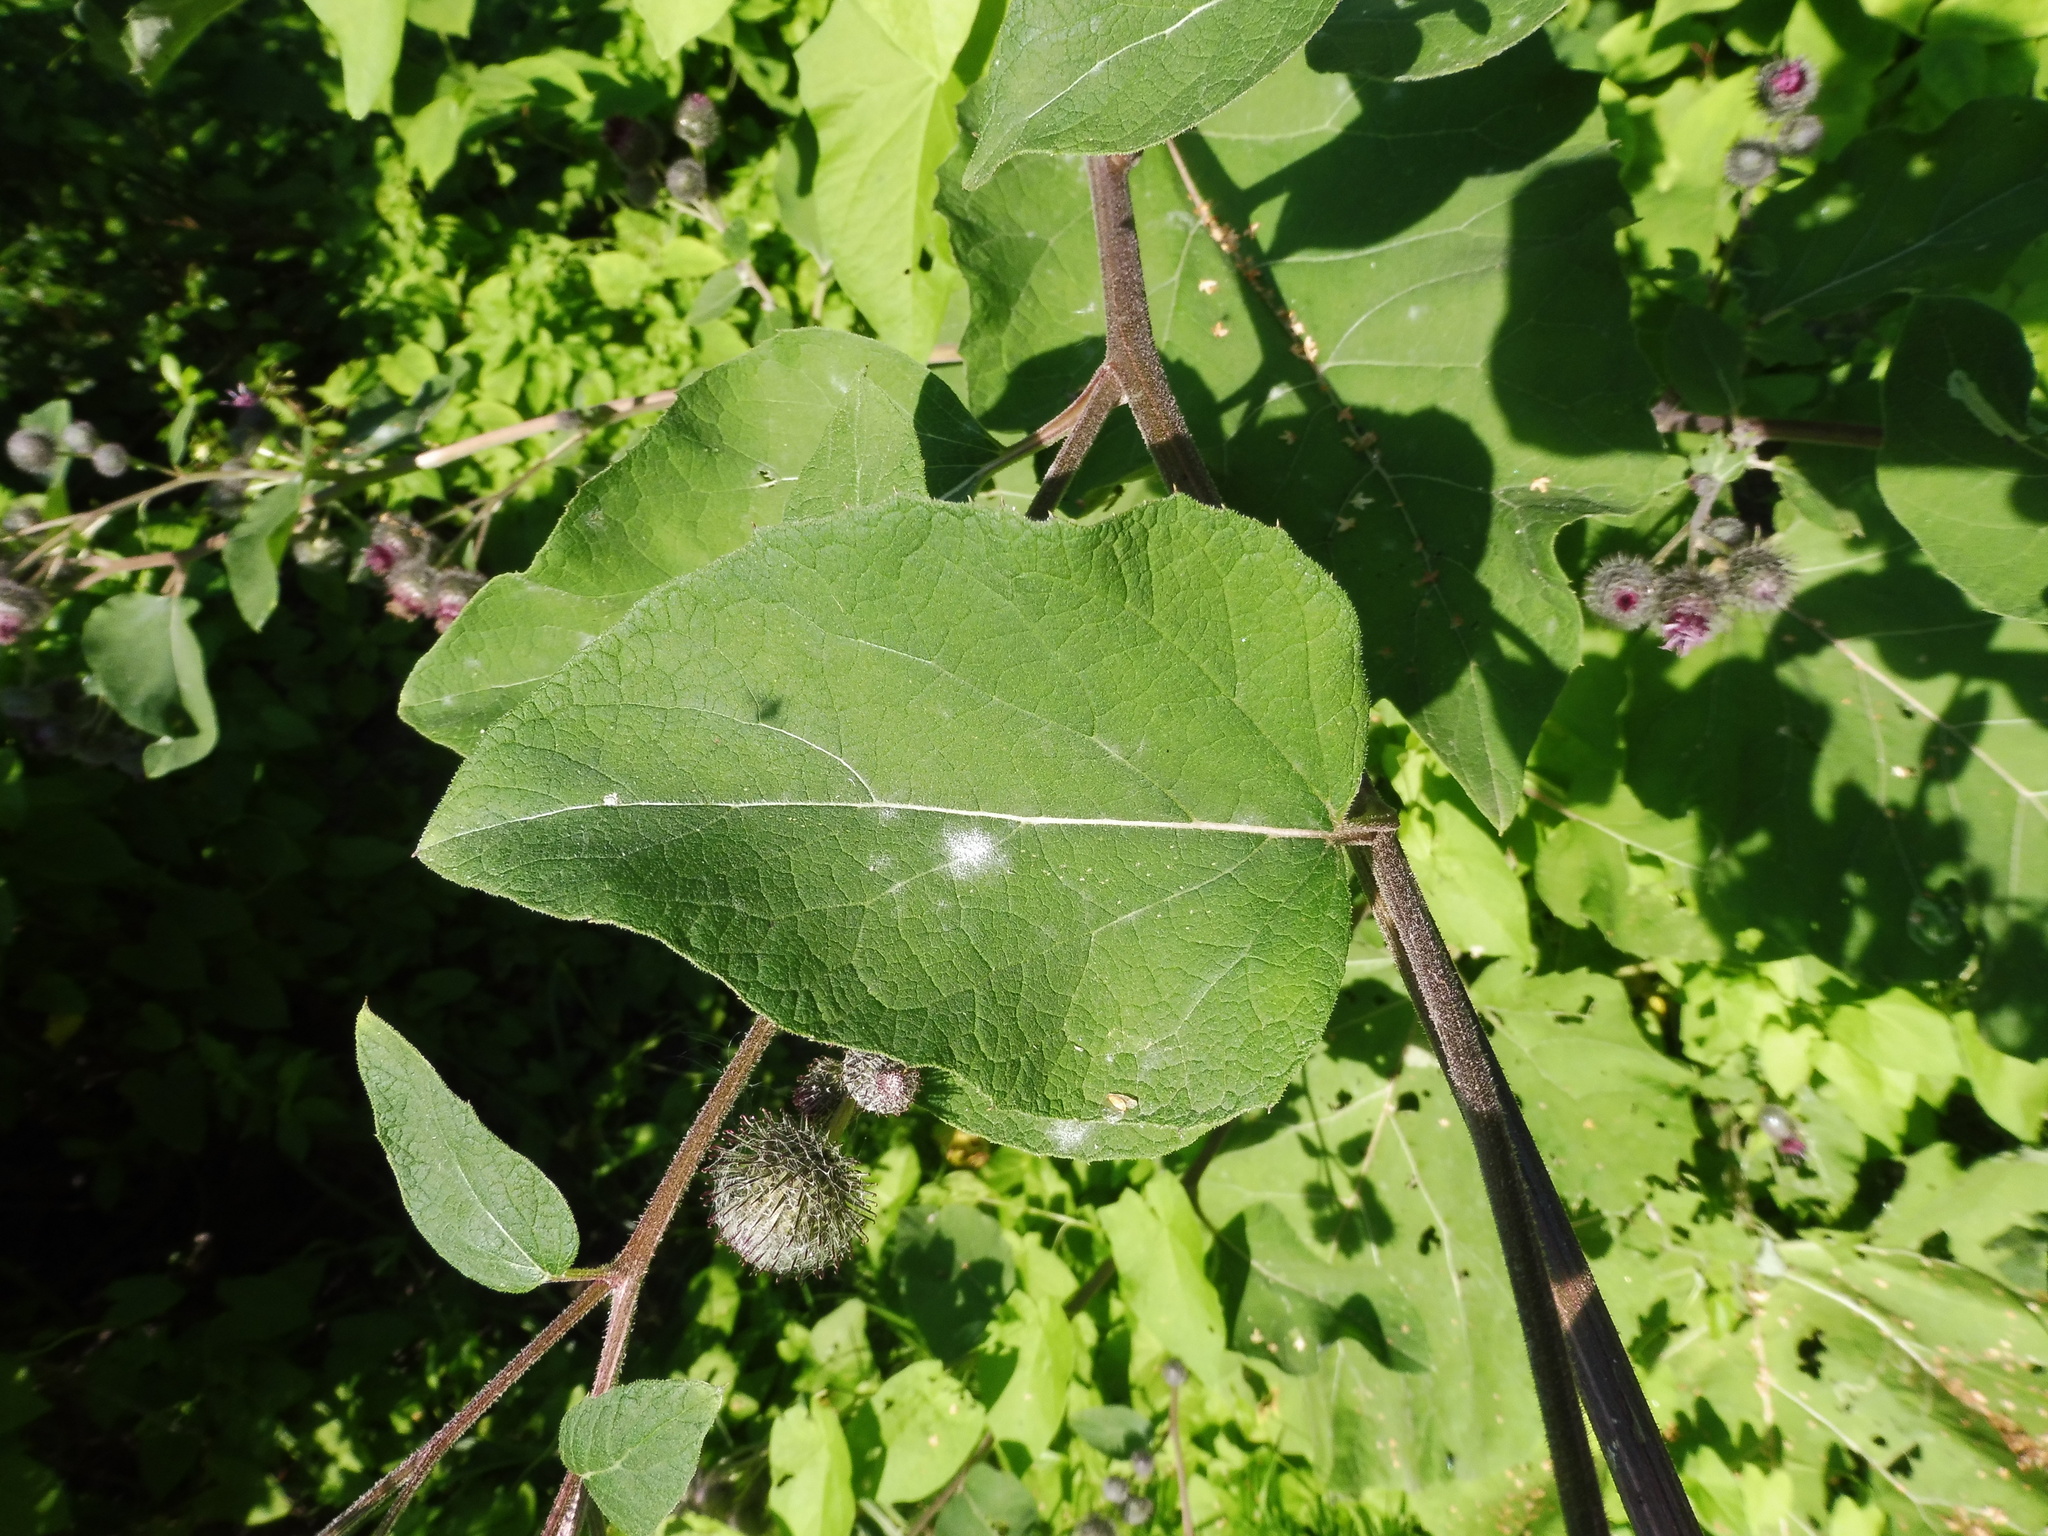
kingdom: Plantae
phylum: Tracheophyta
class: Magnoliopsida
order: Asterales
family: Asteraceae
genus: Arctium
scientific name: Arctium tomentosum
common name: Woolly burdock
